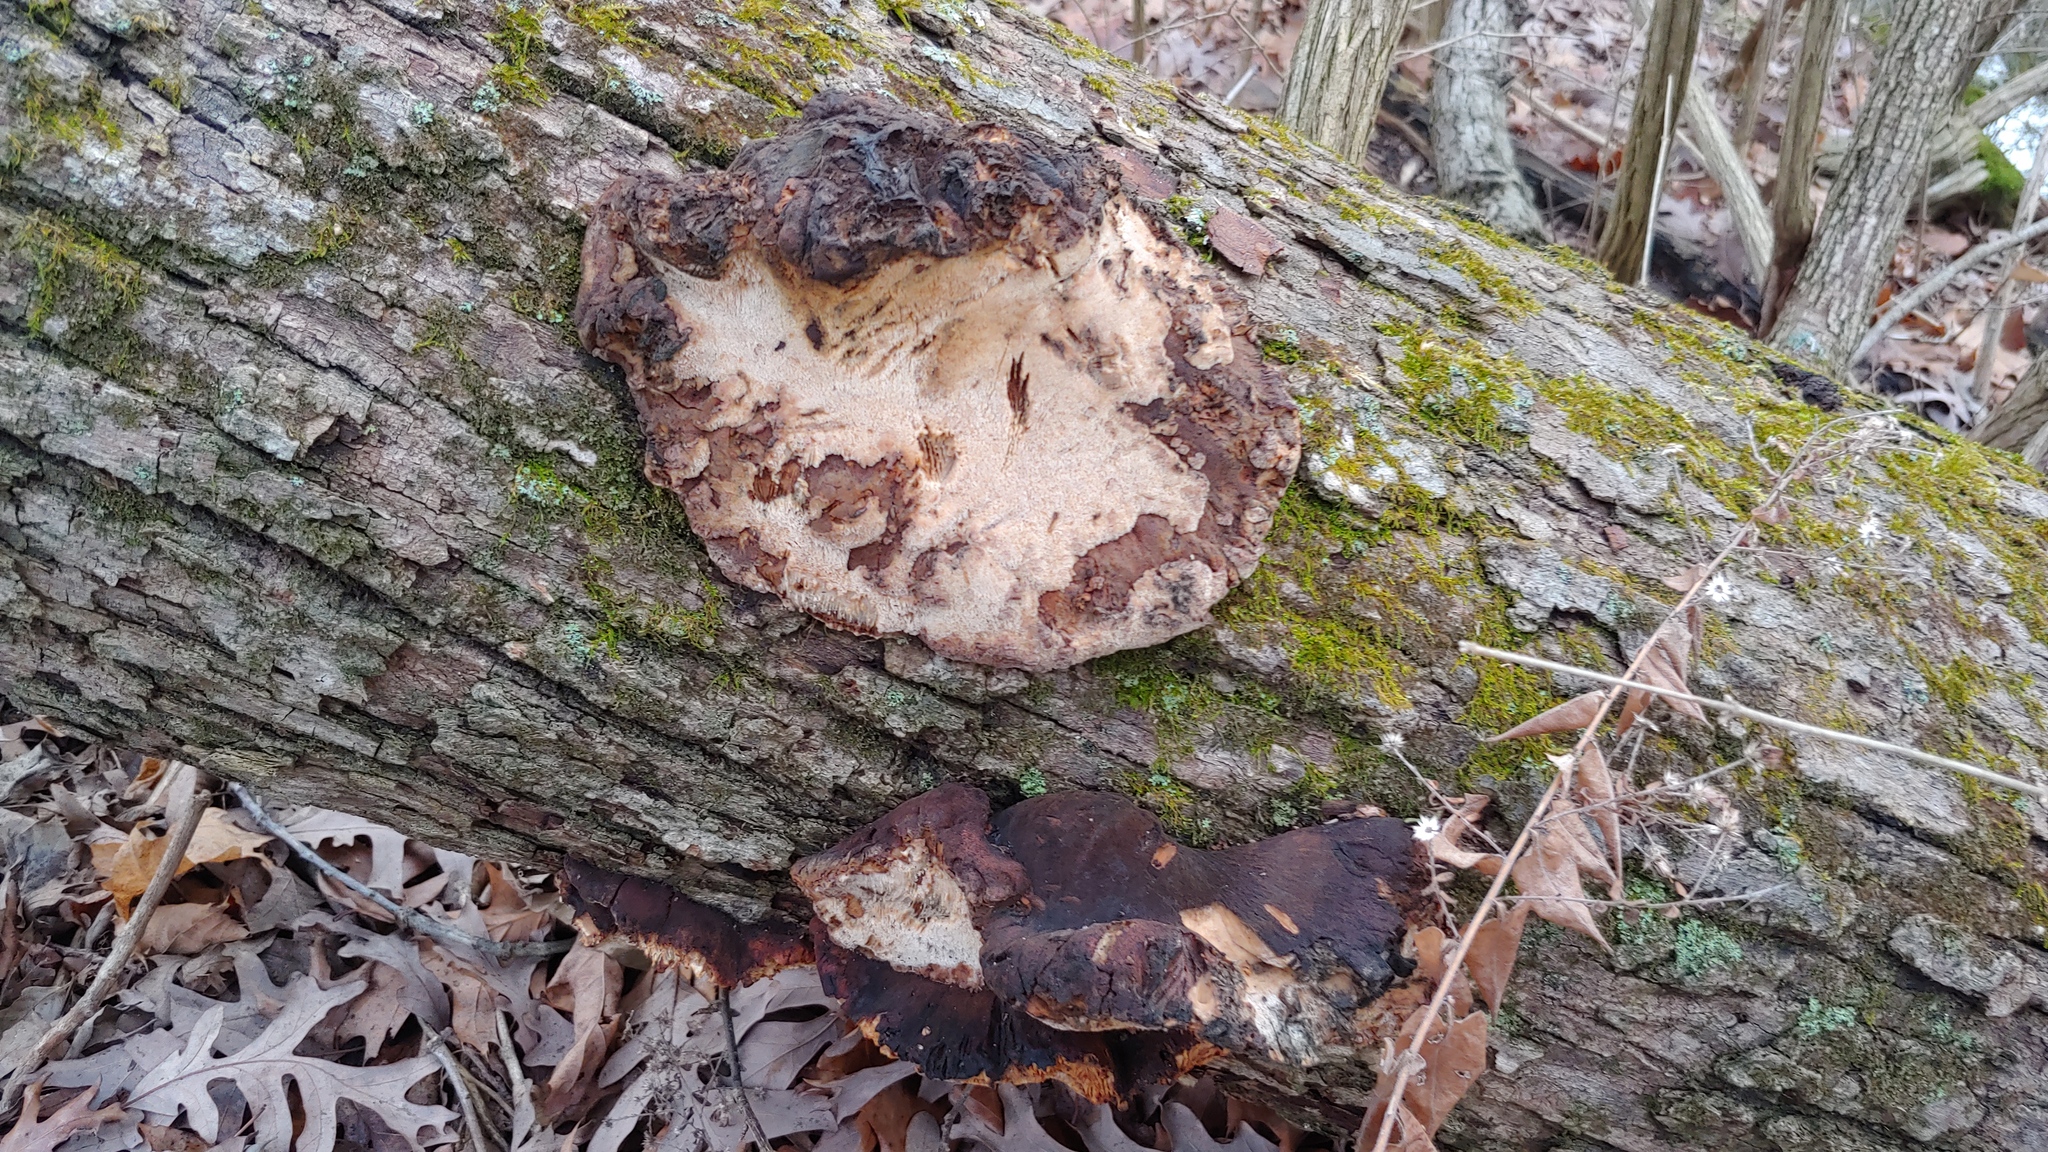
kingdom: Fungi
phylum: Basidiomycota
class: Agaricomycetes
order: Polyporales
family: Ischnodermataceae
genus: Ischnoderma
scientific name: Ischnoderma resinosum
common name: Resinous polypore
